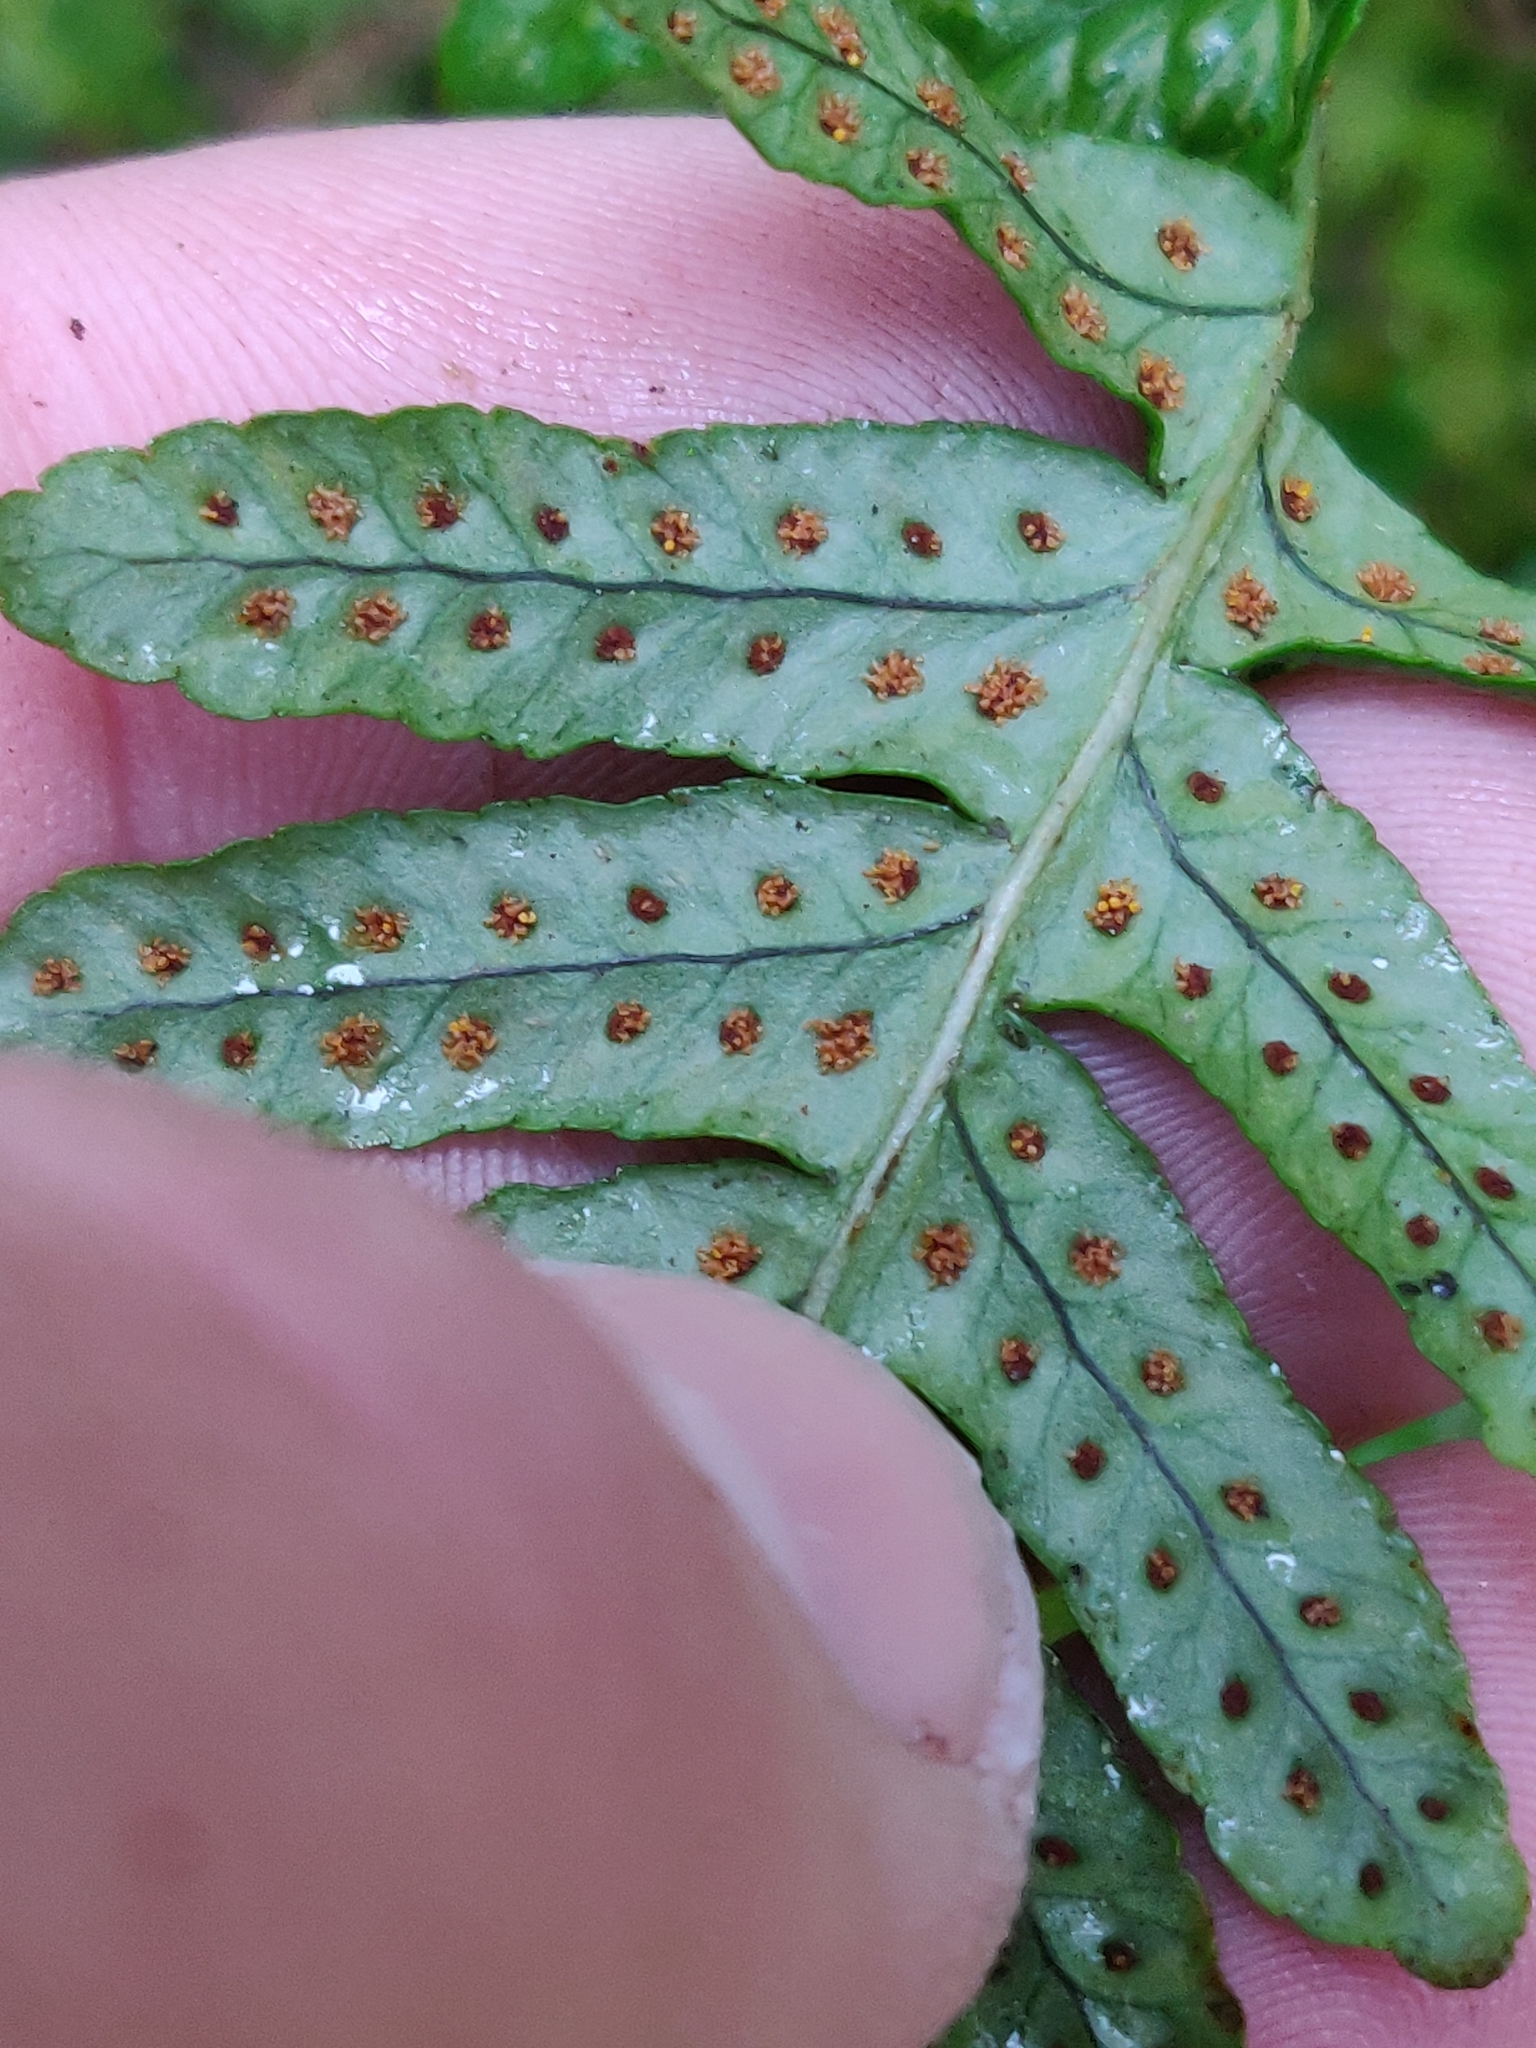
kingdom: Plantae
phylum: Tracheophyta
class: Polypodiopsida
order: Polypodiales
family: Polypodiaceae
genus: Polypodium
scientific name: Polypodium
